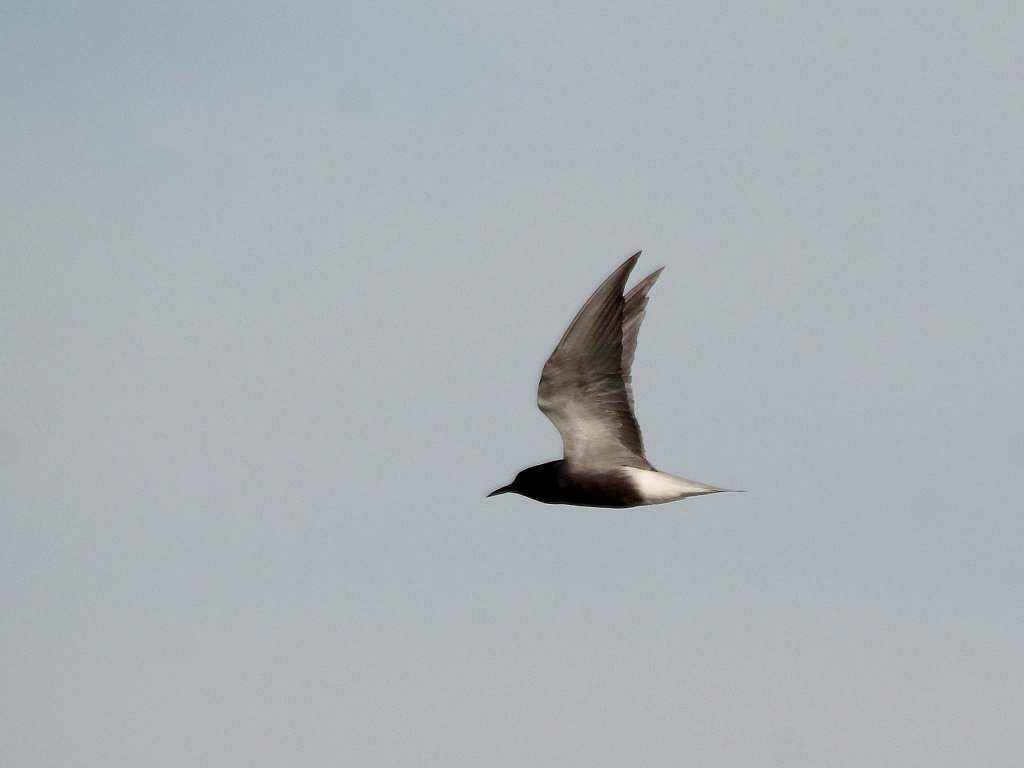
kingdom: Animalia
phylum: Chordata
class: Aves
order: Charadriiformes
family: Laridae
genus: Chlidonias
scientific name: Chlidonias niger
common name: Black tern
